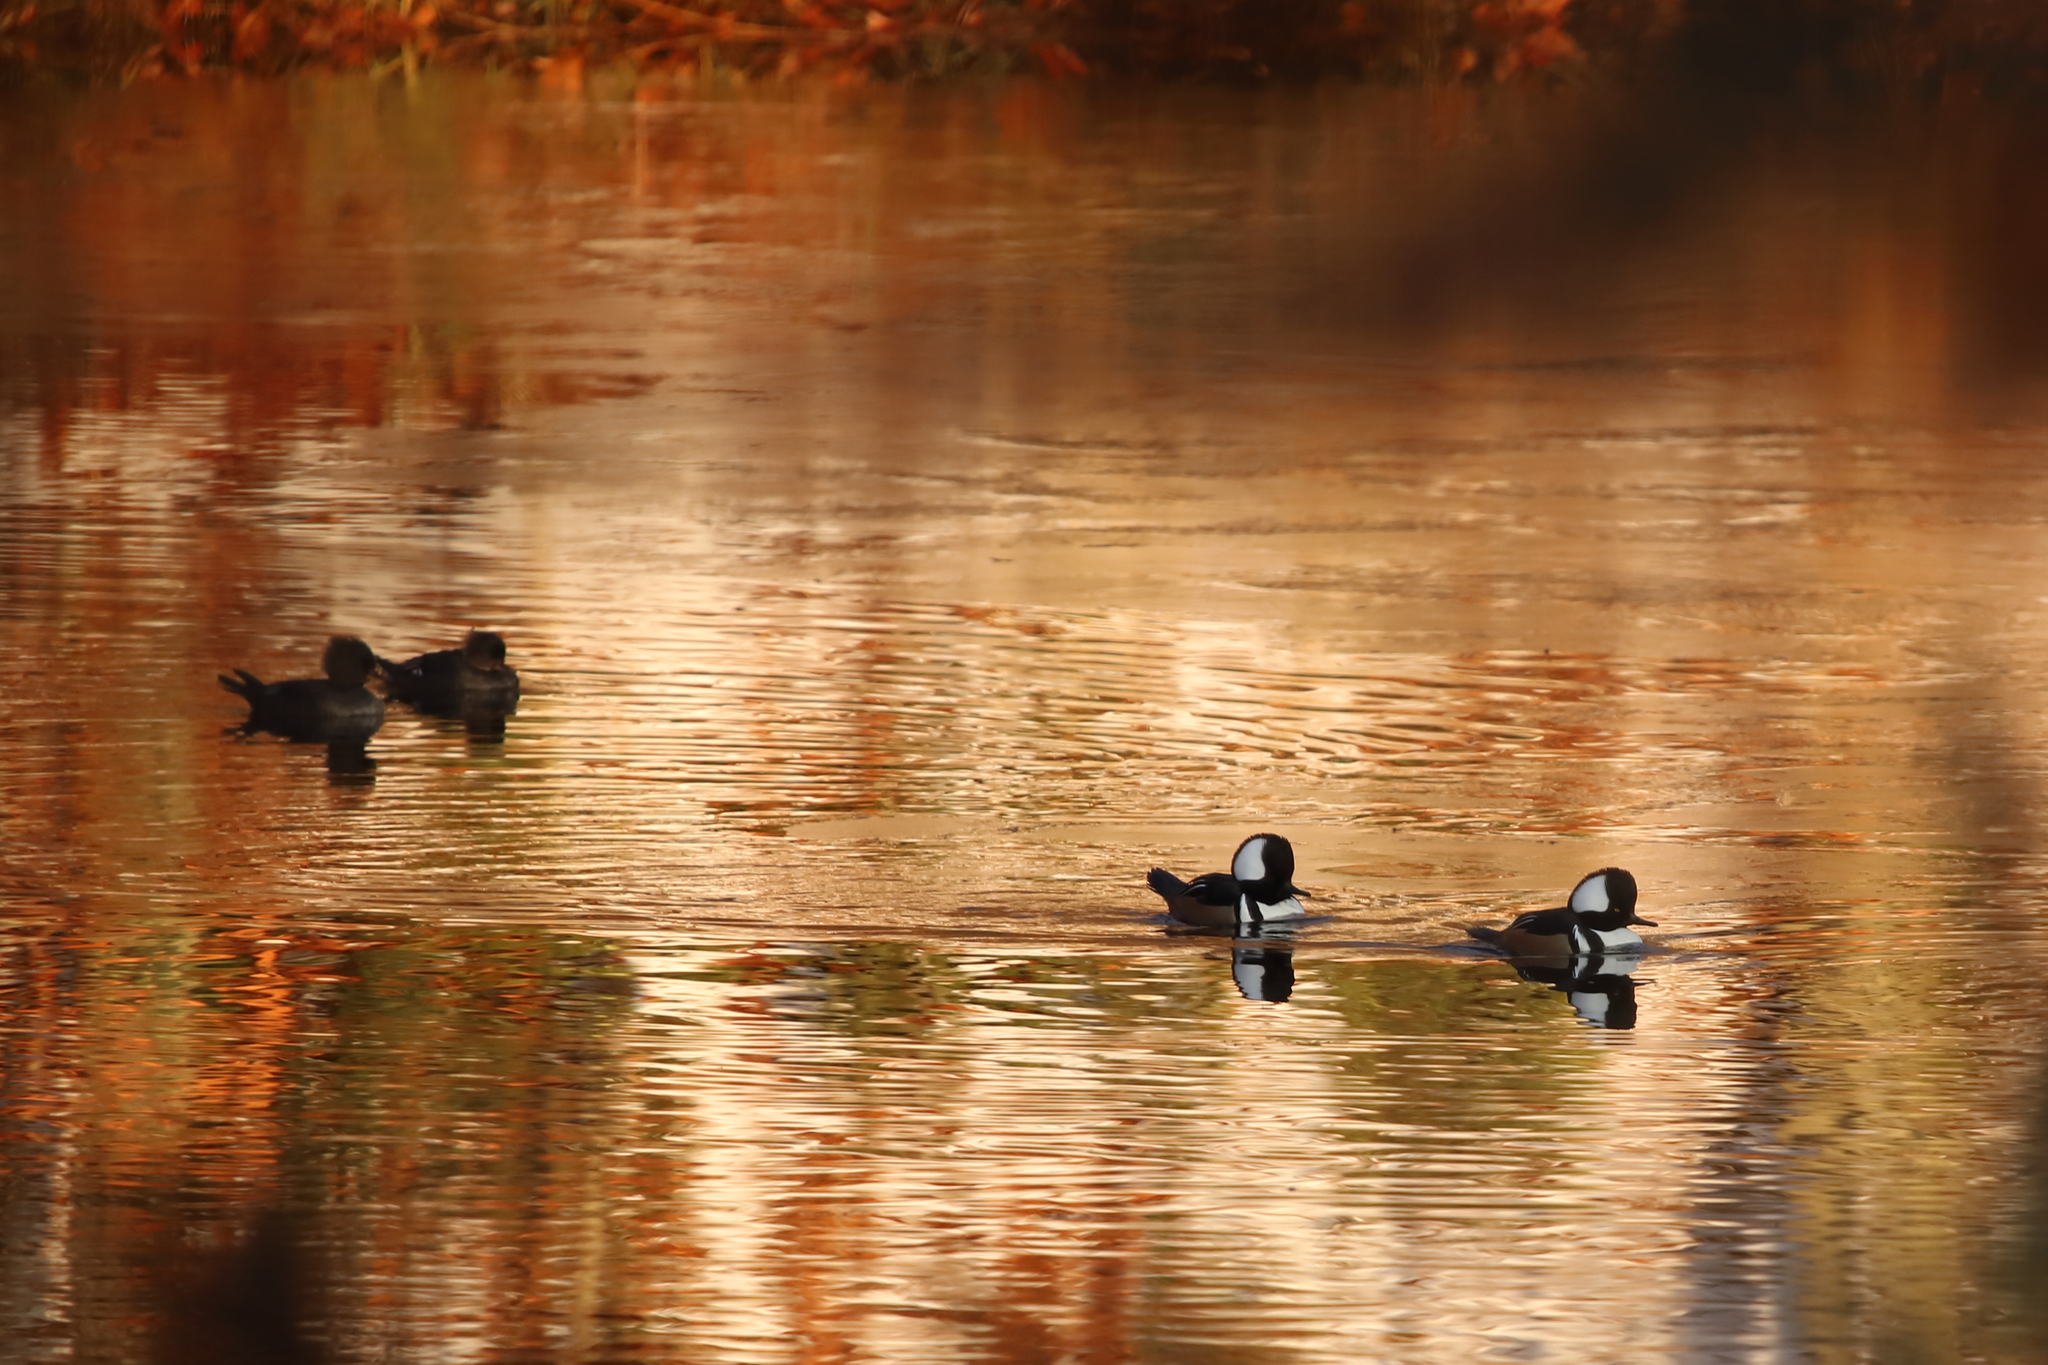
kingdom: Animalia
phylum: Chordata
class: Aves
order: Anseriformes
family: Anatidae
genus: Lophodytes
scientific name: Lophodytes cucullatus
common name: Hooded merganser
